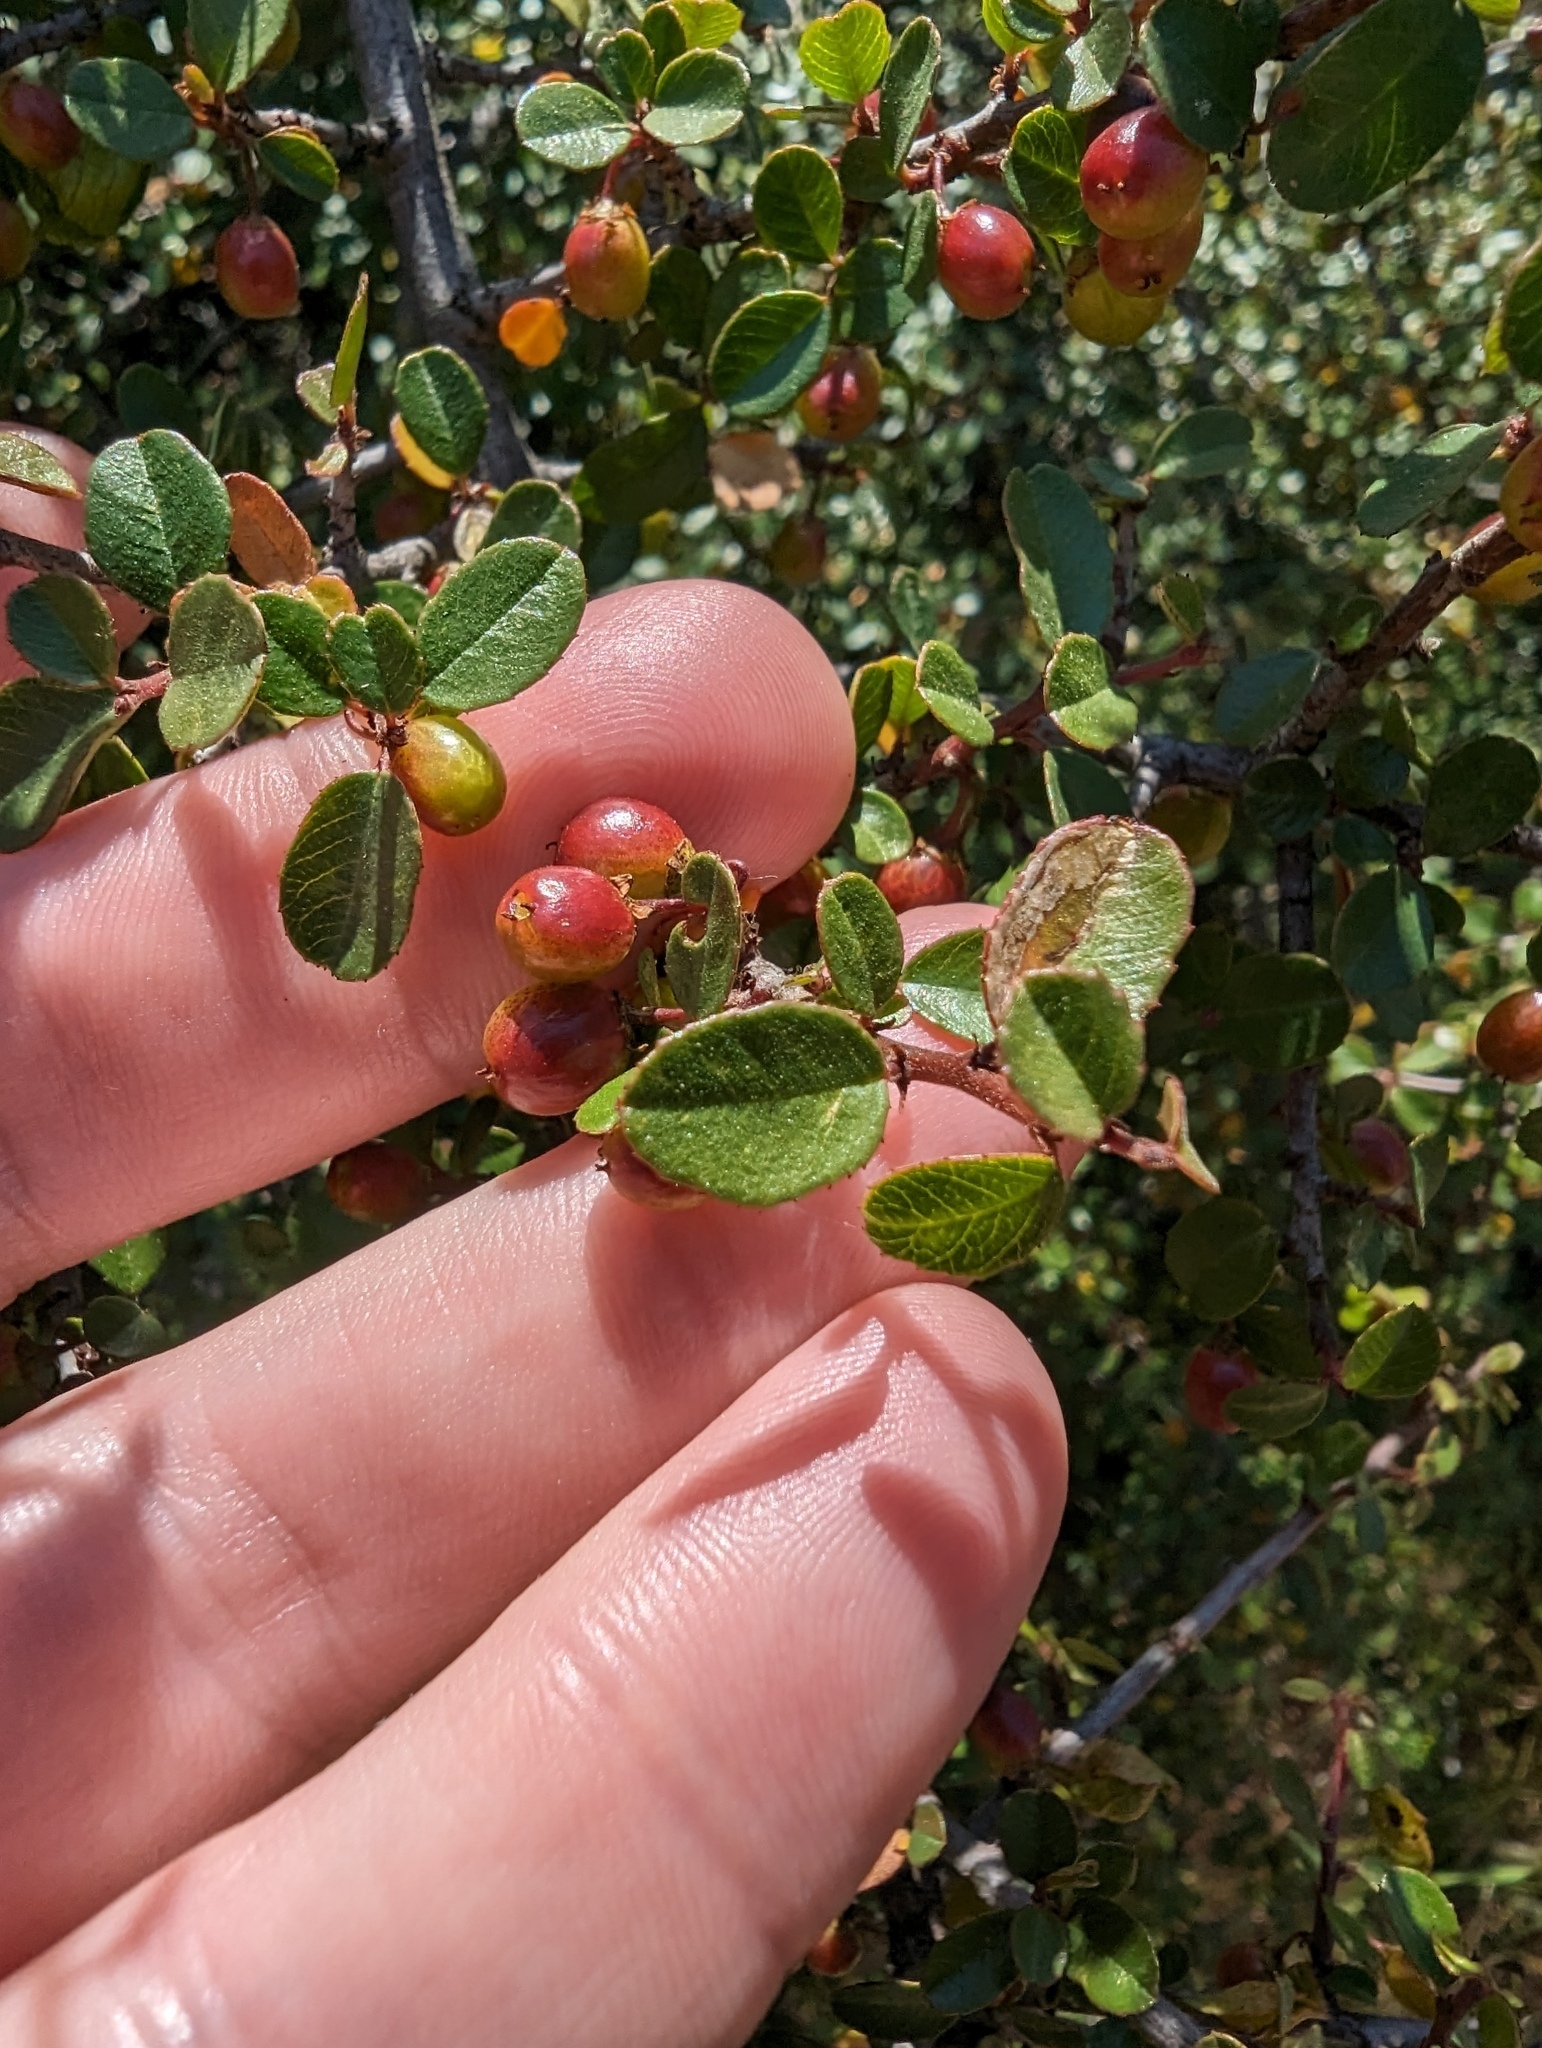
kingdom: Plantae
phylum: Tracheophyta
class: Magnoliopsida
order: Rosales
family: Rhamnaceae
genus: Endotropis
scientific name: Endotropis crocea
